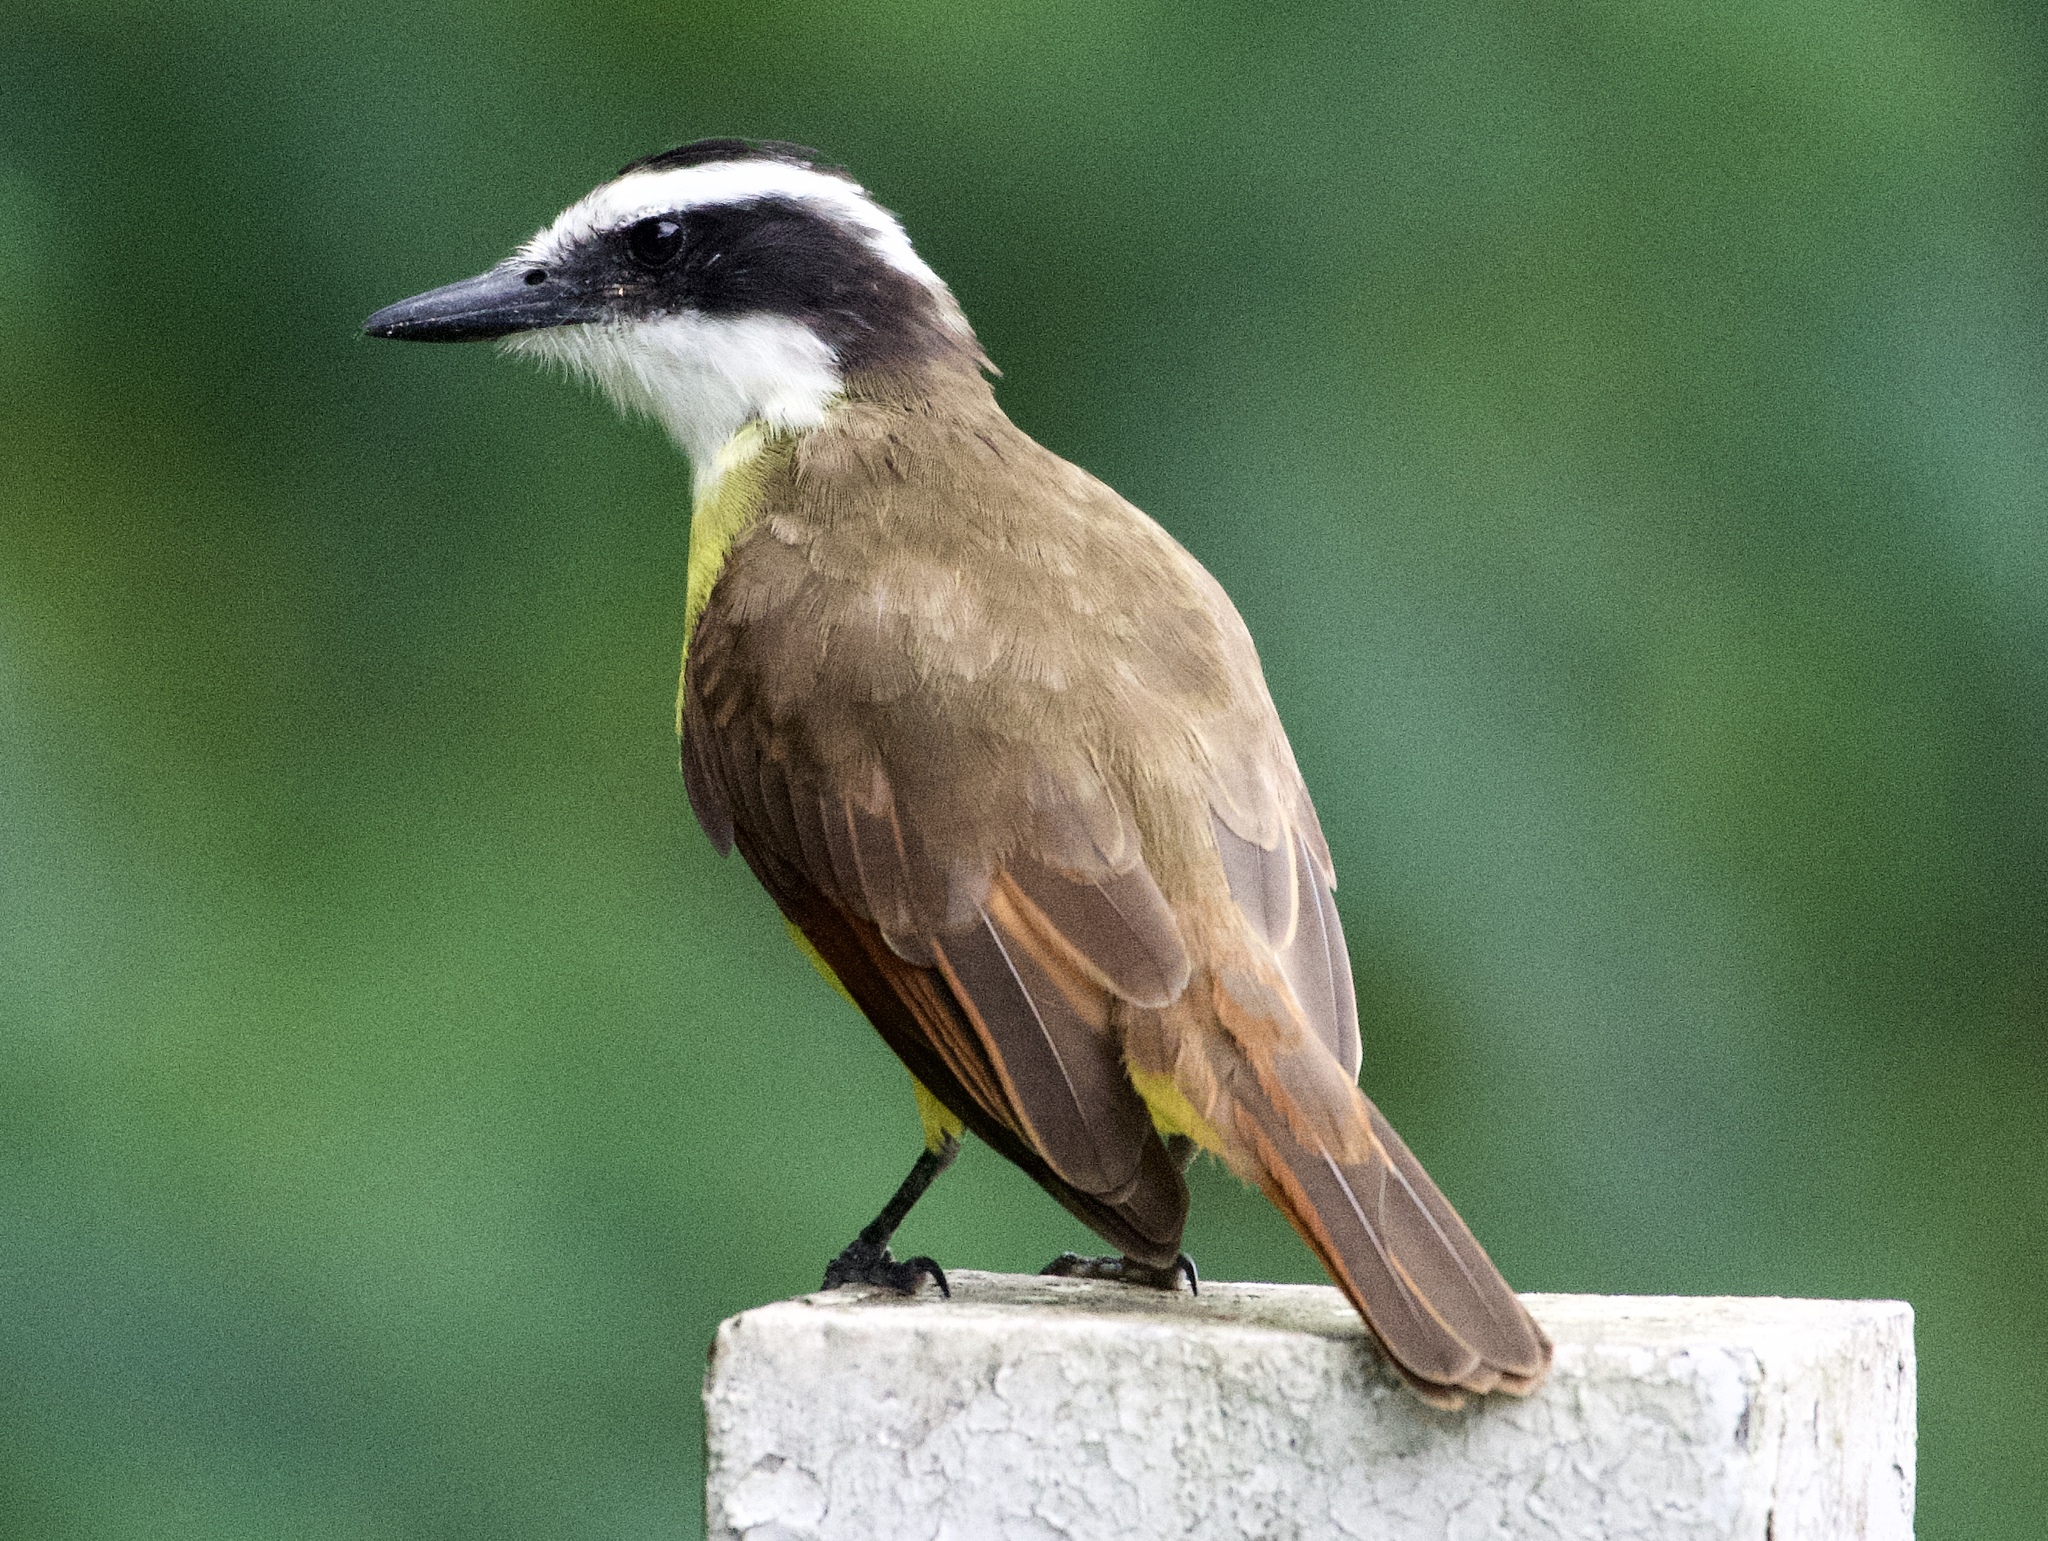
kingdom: Animalia
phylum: Chordata
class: Aves
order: Passeriformes
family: Tyrannidae
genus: Pitangus
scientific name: Pitangus sulphuratus
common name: Great kiskadee
